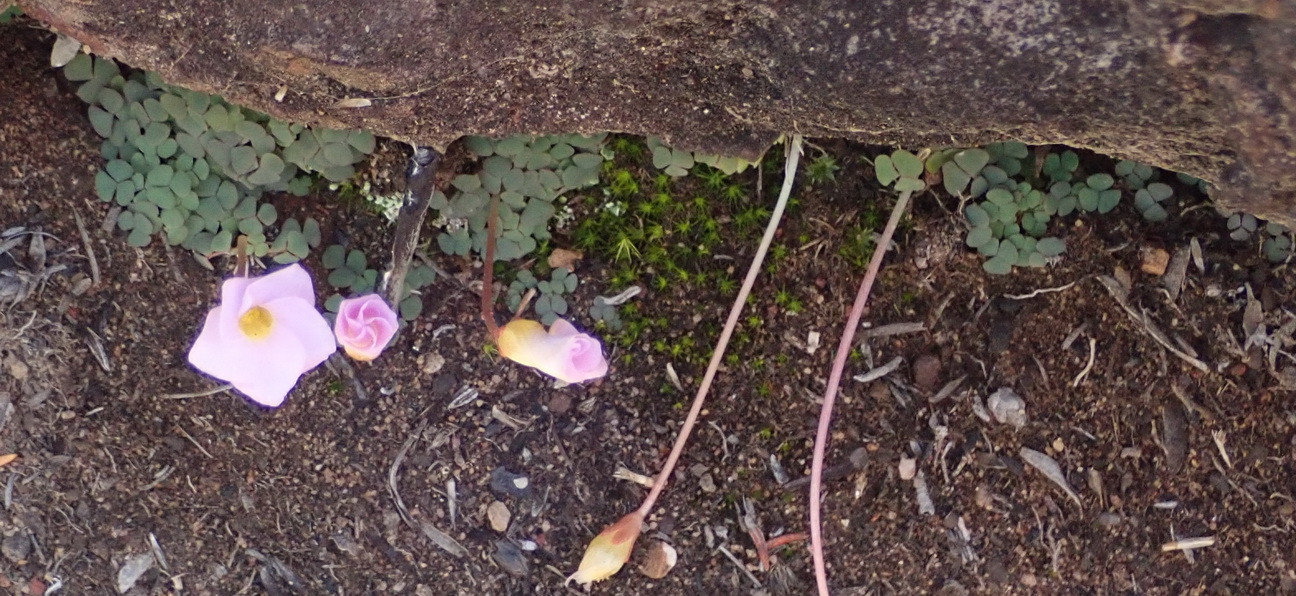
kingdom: Plantae
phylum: Tracheophyta
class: Magnoliopsida
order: Oxalidales
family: Oxalidaceae
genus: Oxalis
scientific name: Oxalis fergusoniae
